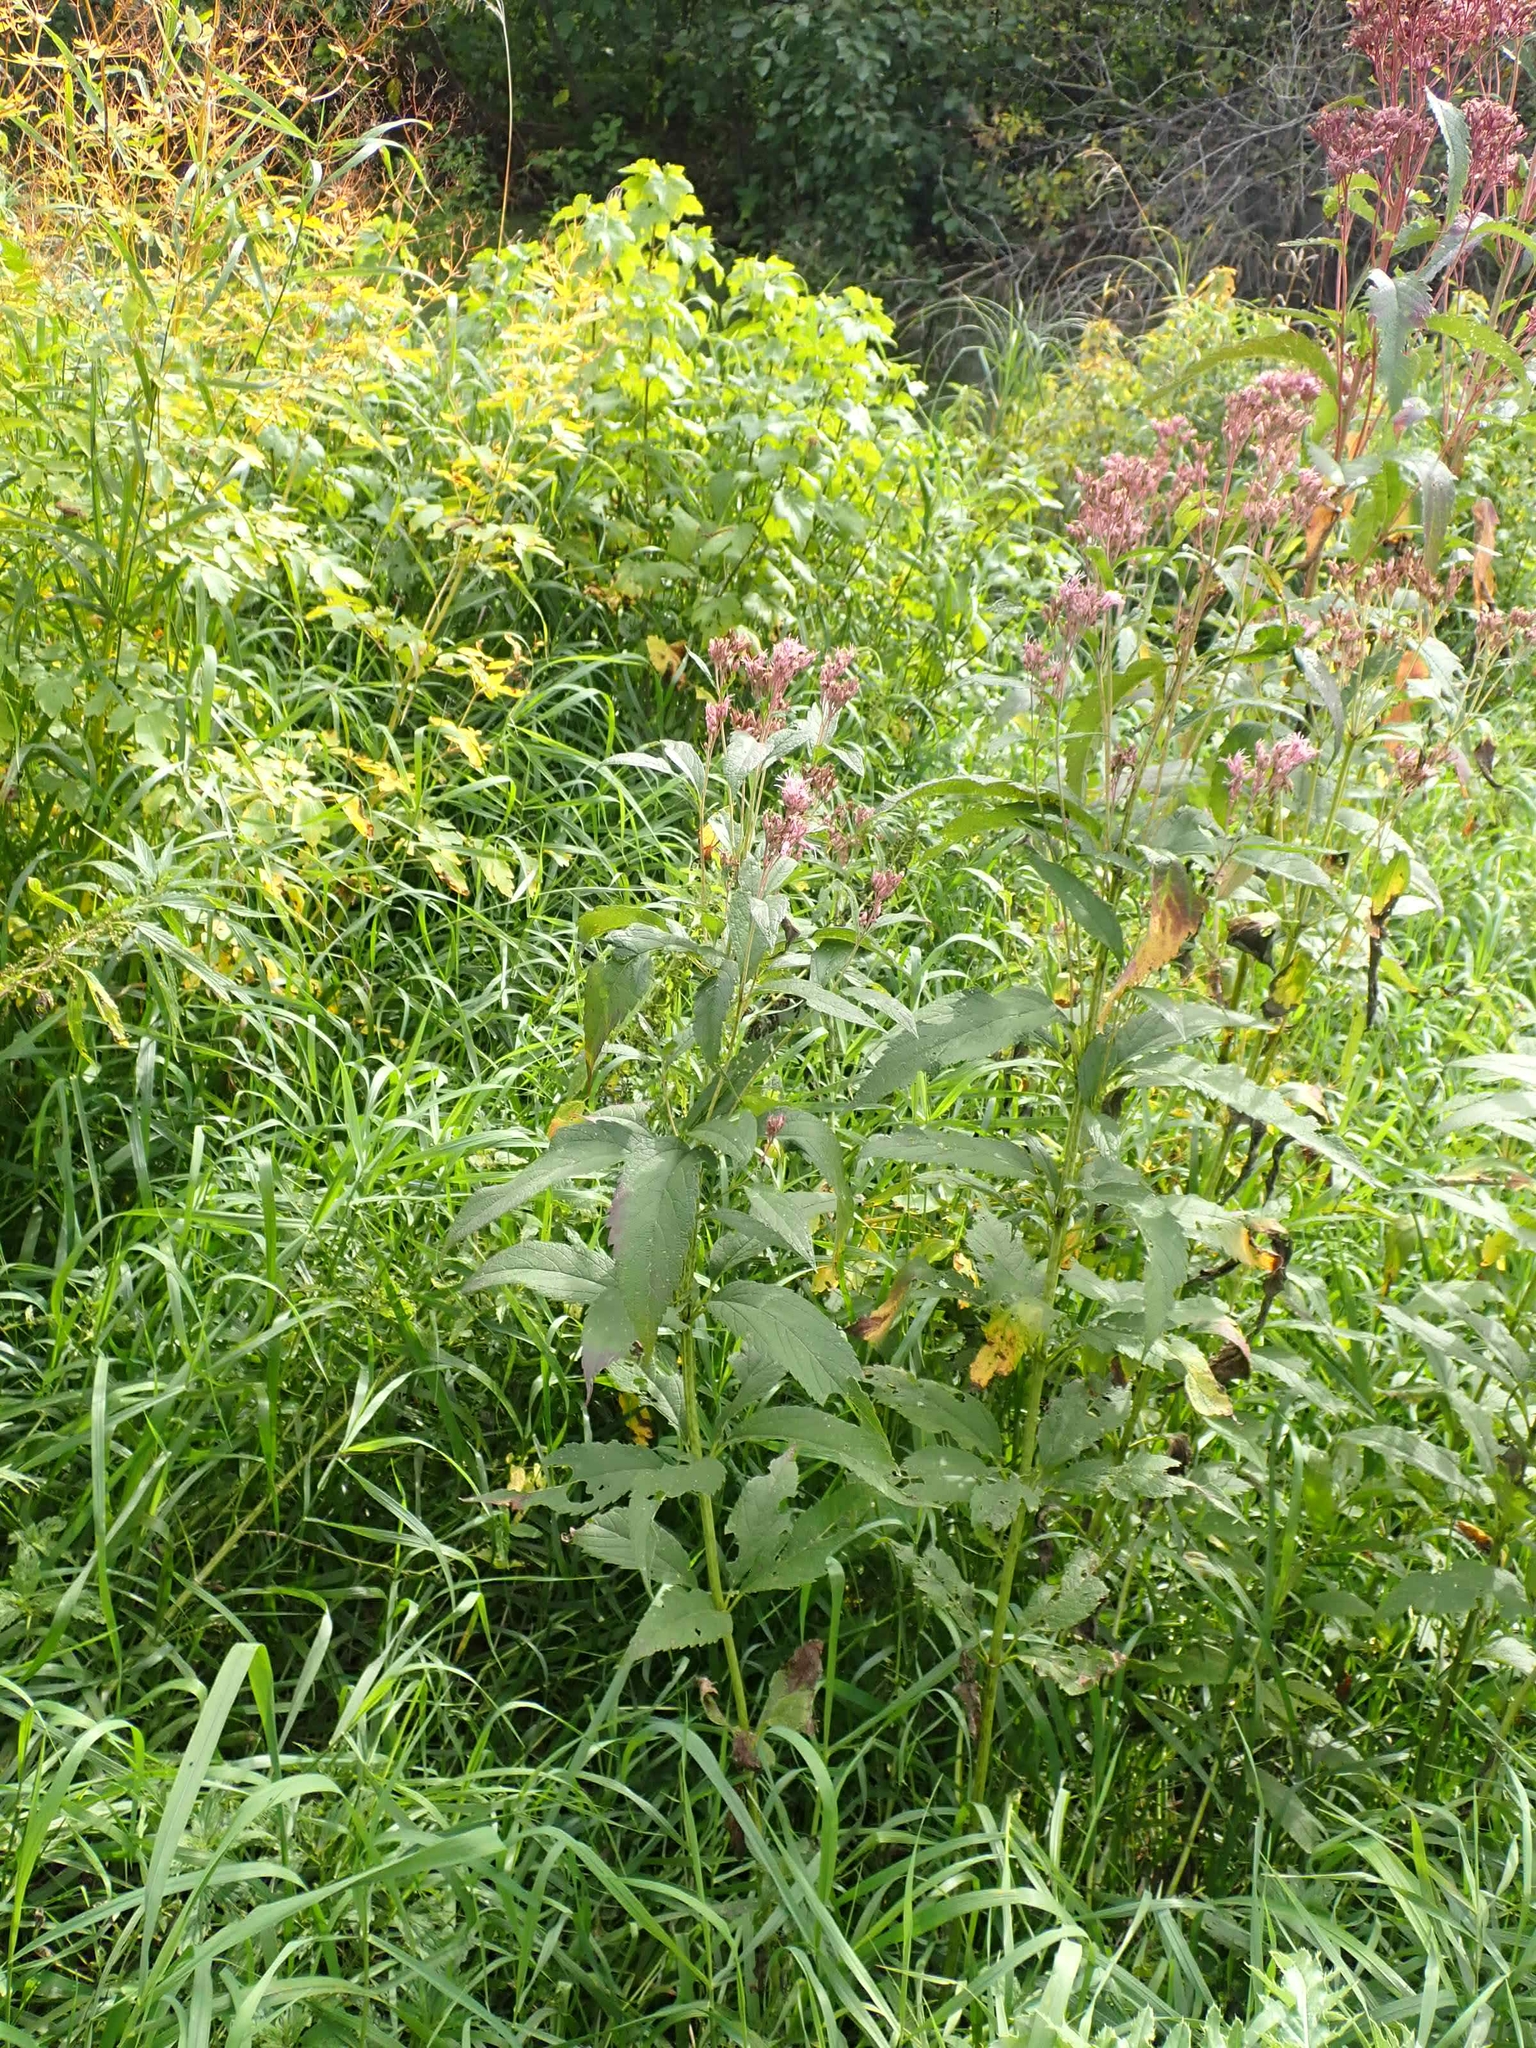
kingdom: Plantae
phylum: Tracheophyta
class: Magnoliopsida
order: Asterales
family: Asteraceae
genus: Eutrochium
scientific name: Eutrochium maculatum
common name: Spotted joe pye weed
